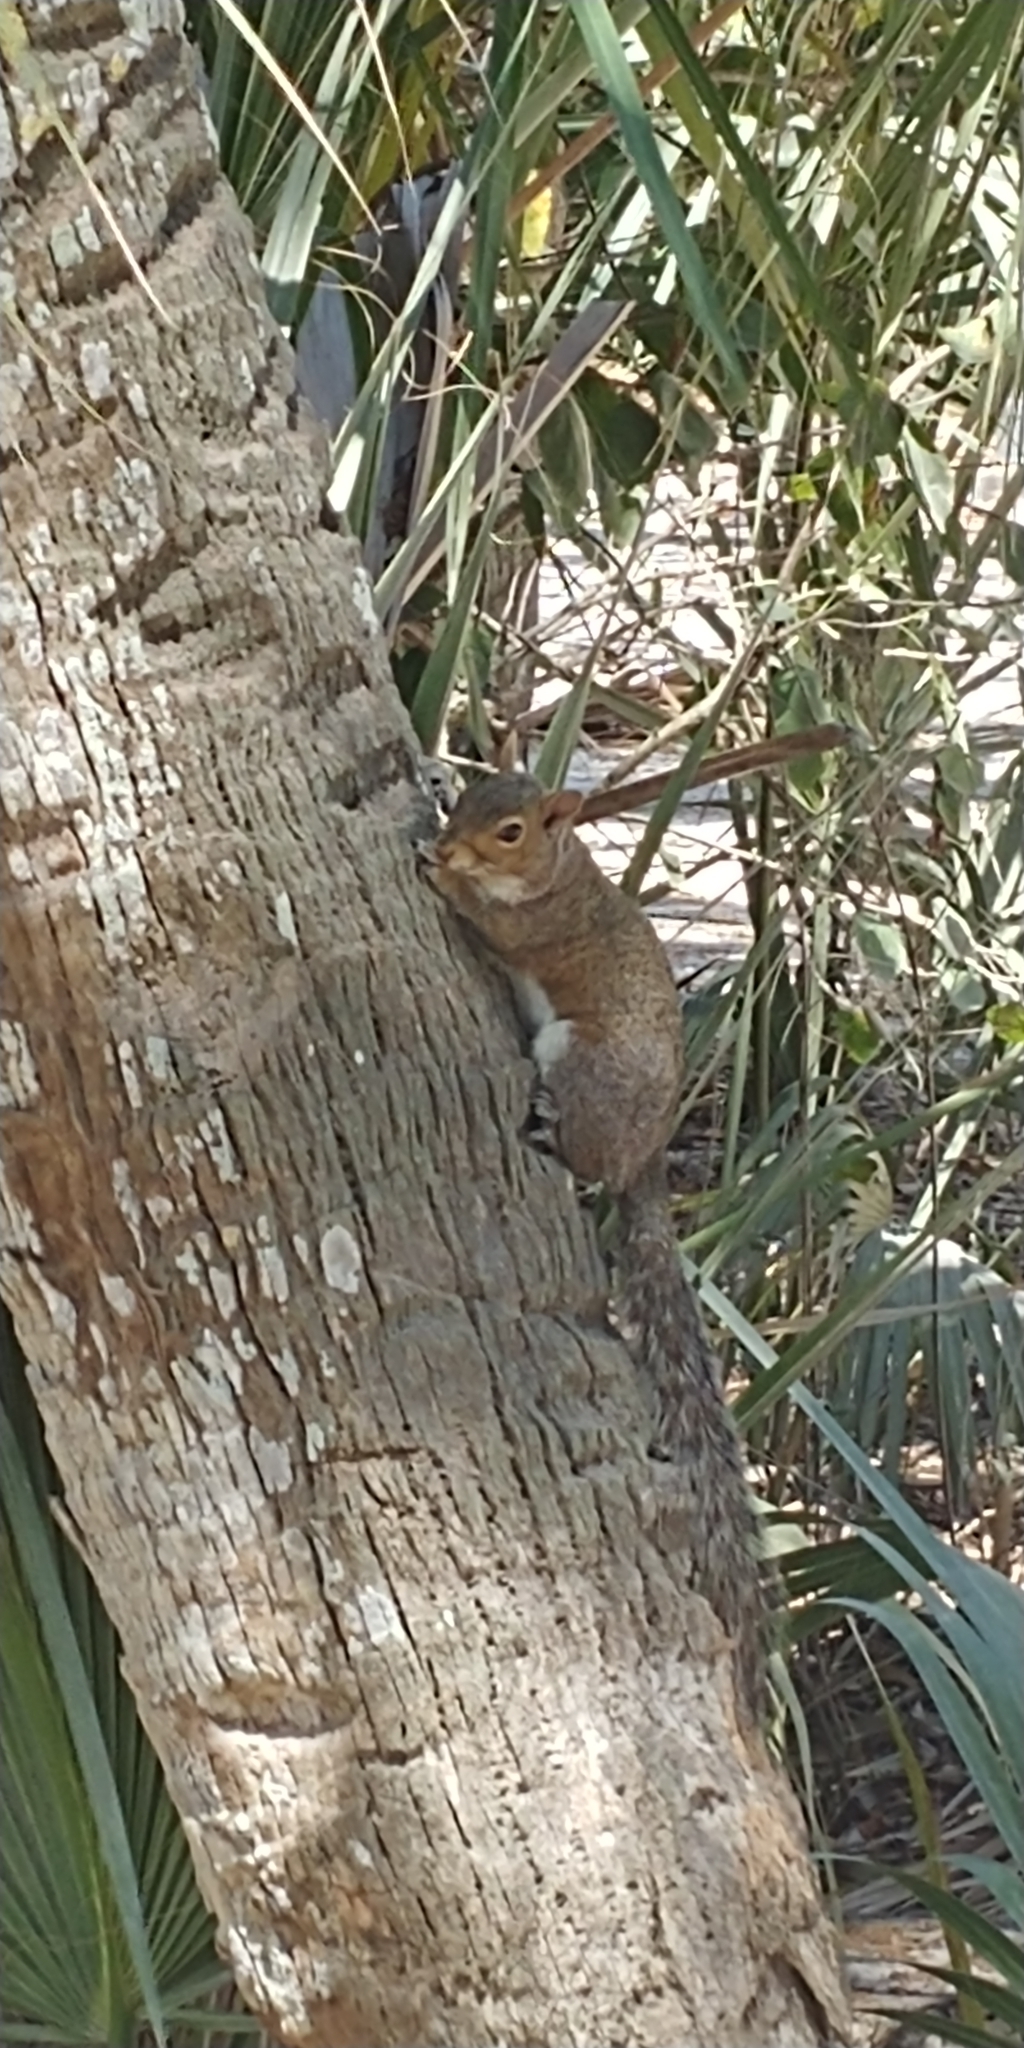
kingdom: Animalia
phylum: Chordata
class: Mammalia
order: Rodentia
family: Sciuridae
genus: Sciurus
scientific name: Sciurus carolinensis
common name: Eastern gray squirrel
